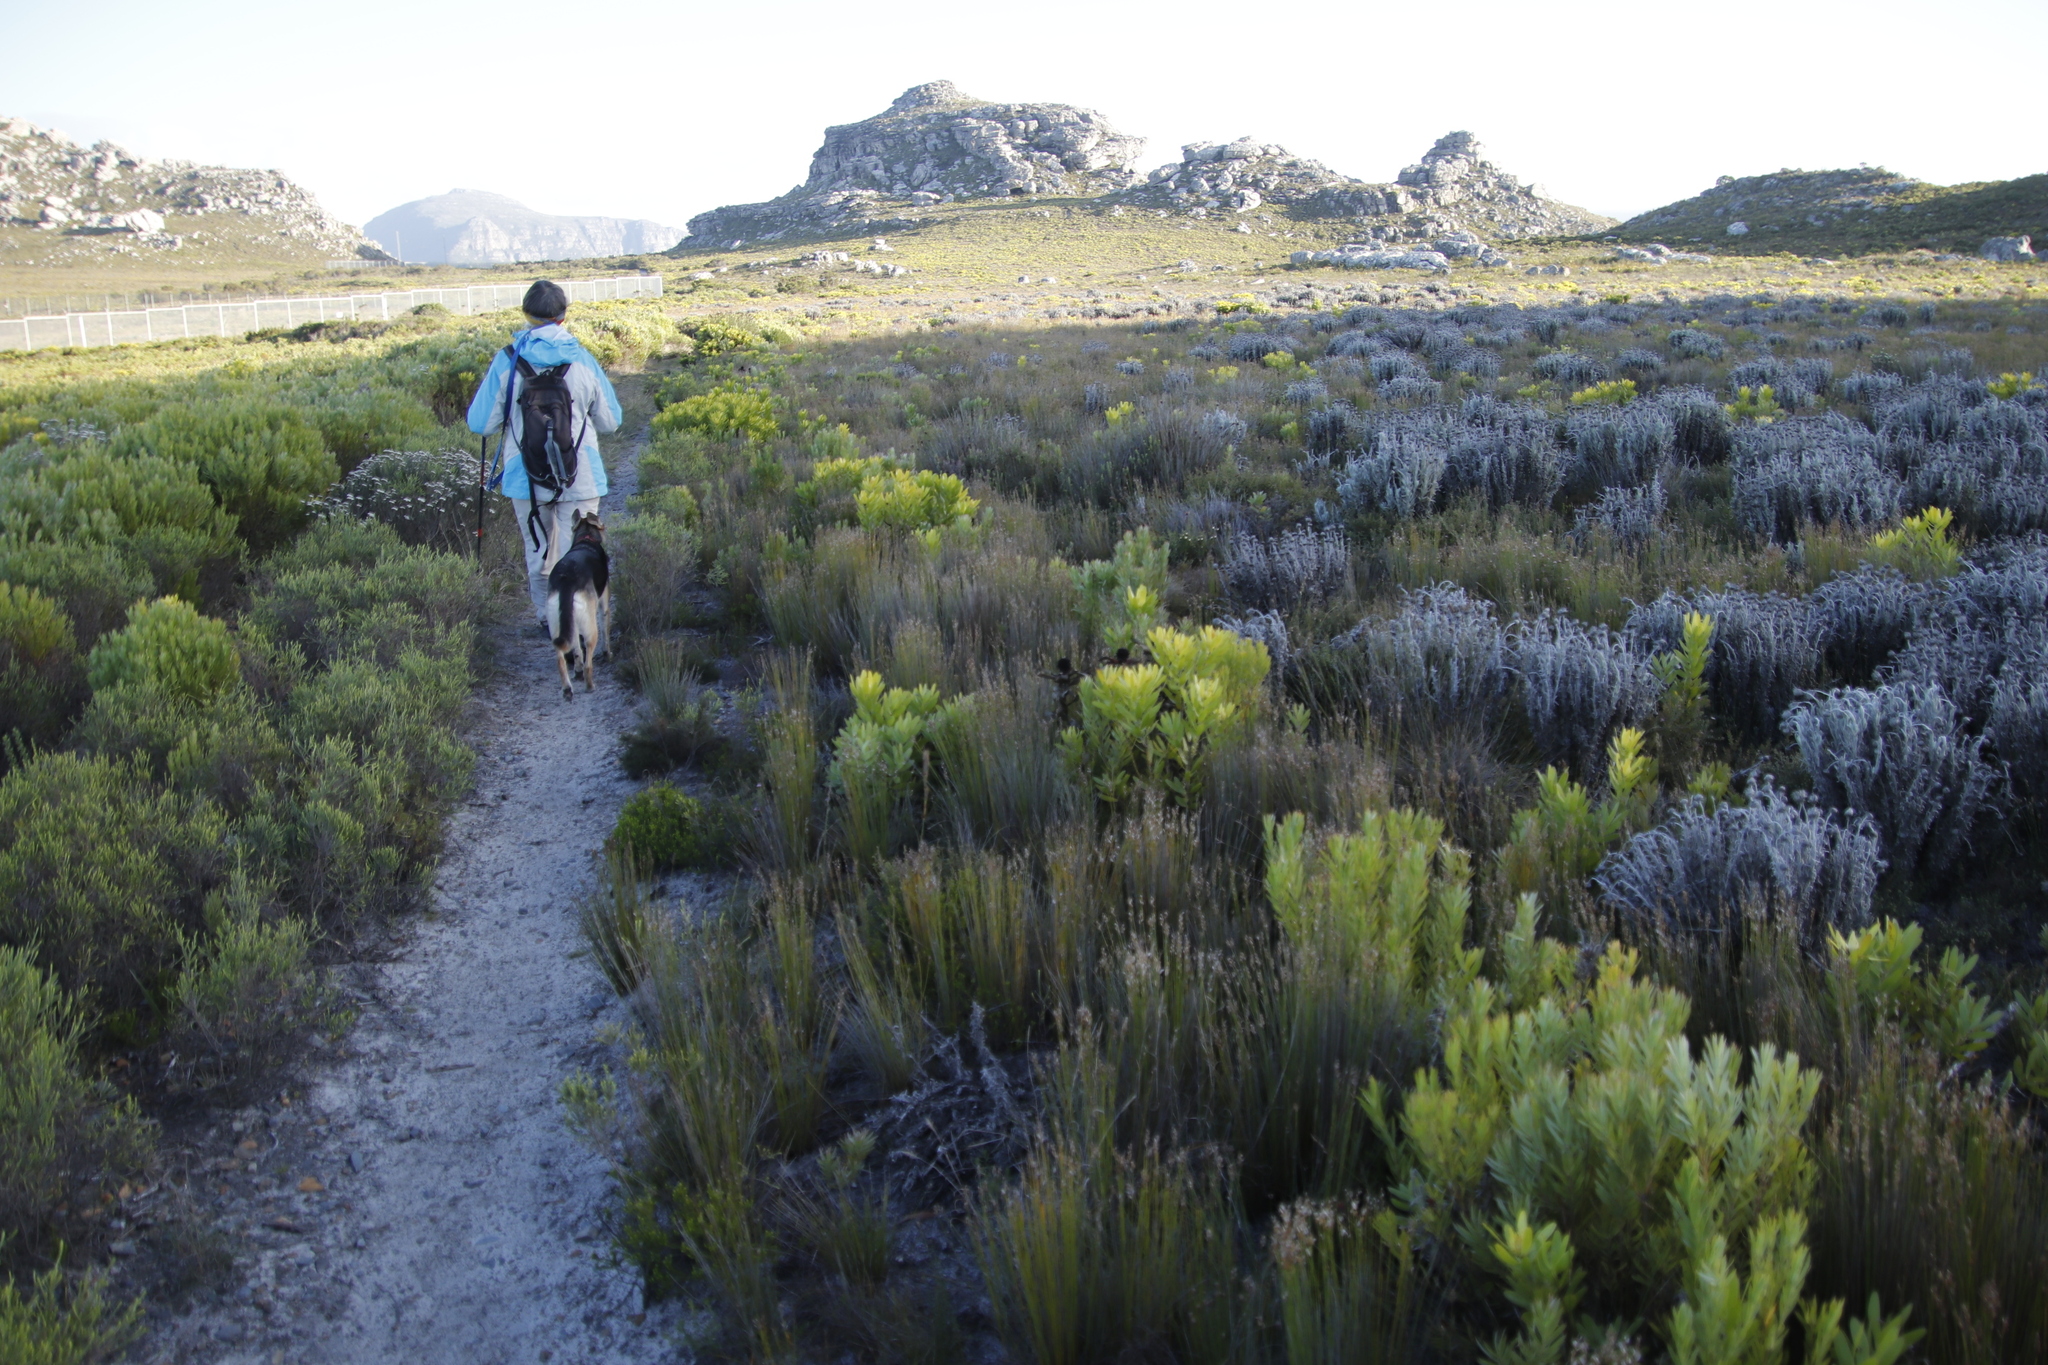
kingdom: Plantae
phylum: Tracheophyta
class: Magnoliopsida
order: Proteales
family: Proteaceae
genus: Leucadendron
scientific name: Leucadendron laureolum
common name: Golden sunshinebush
